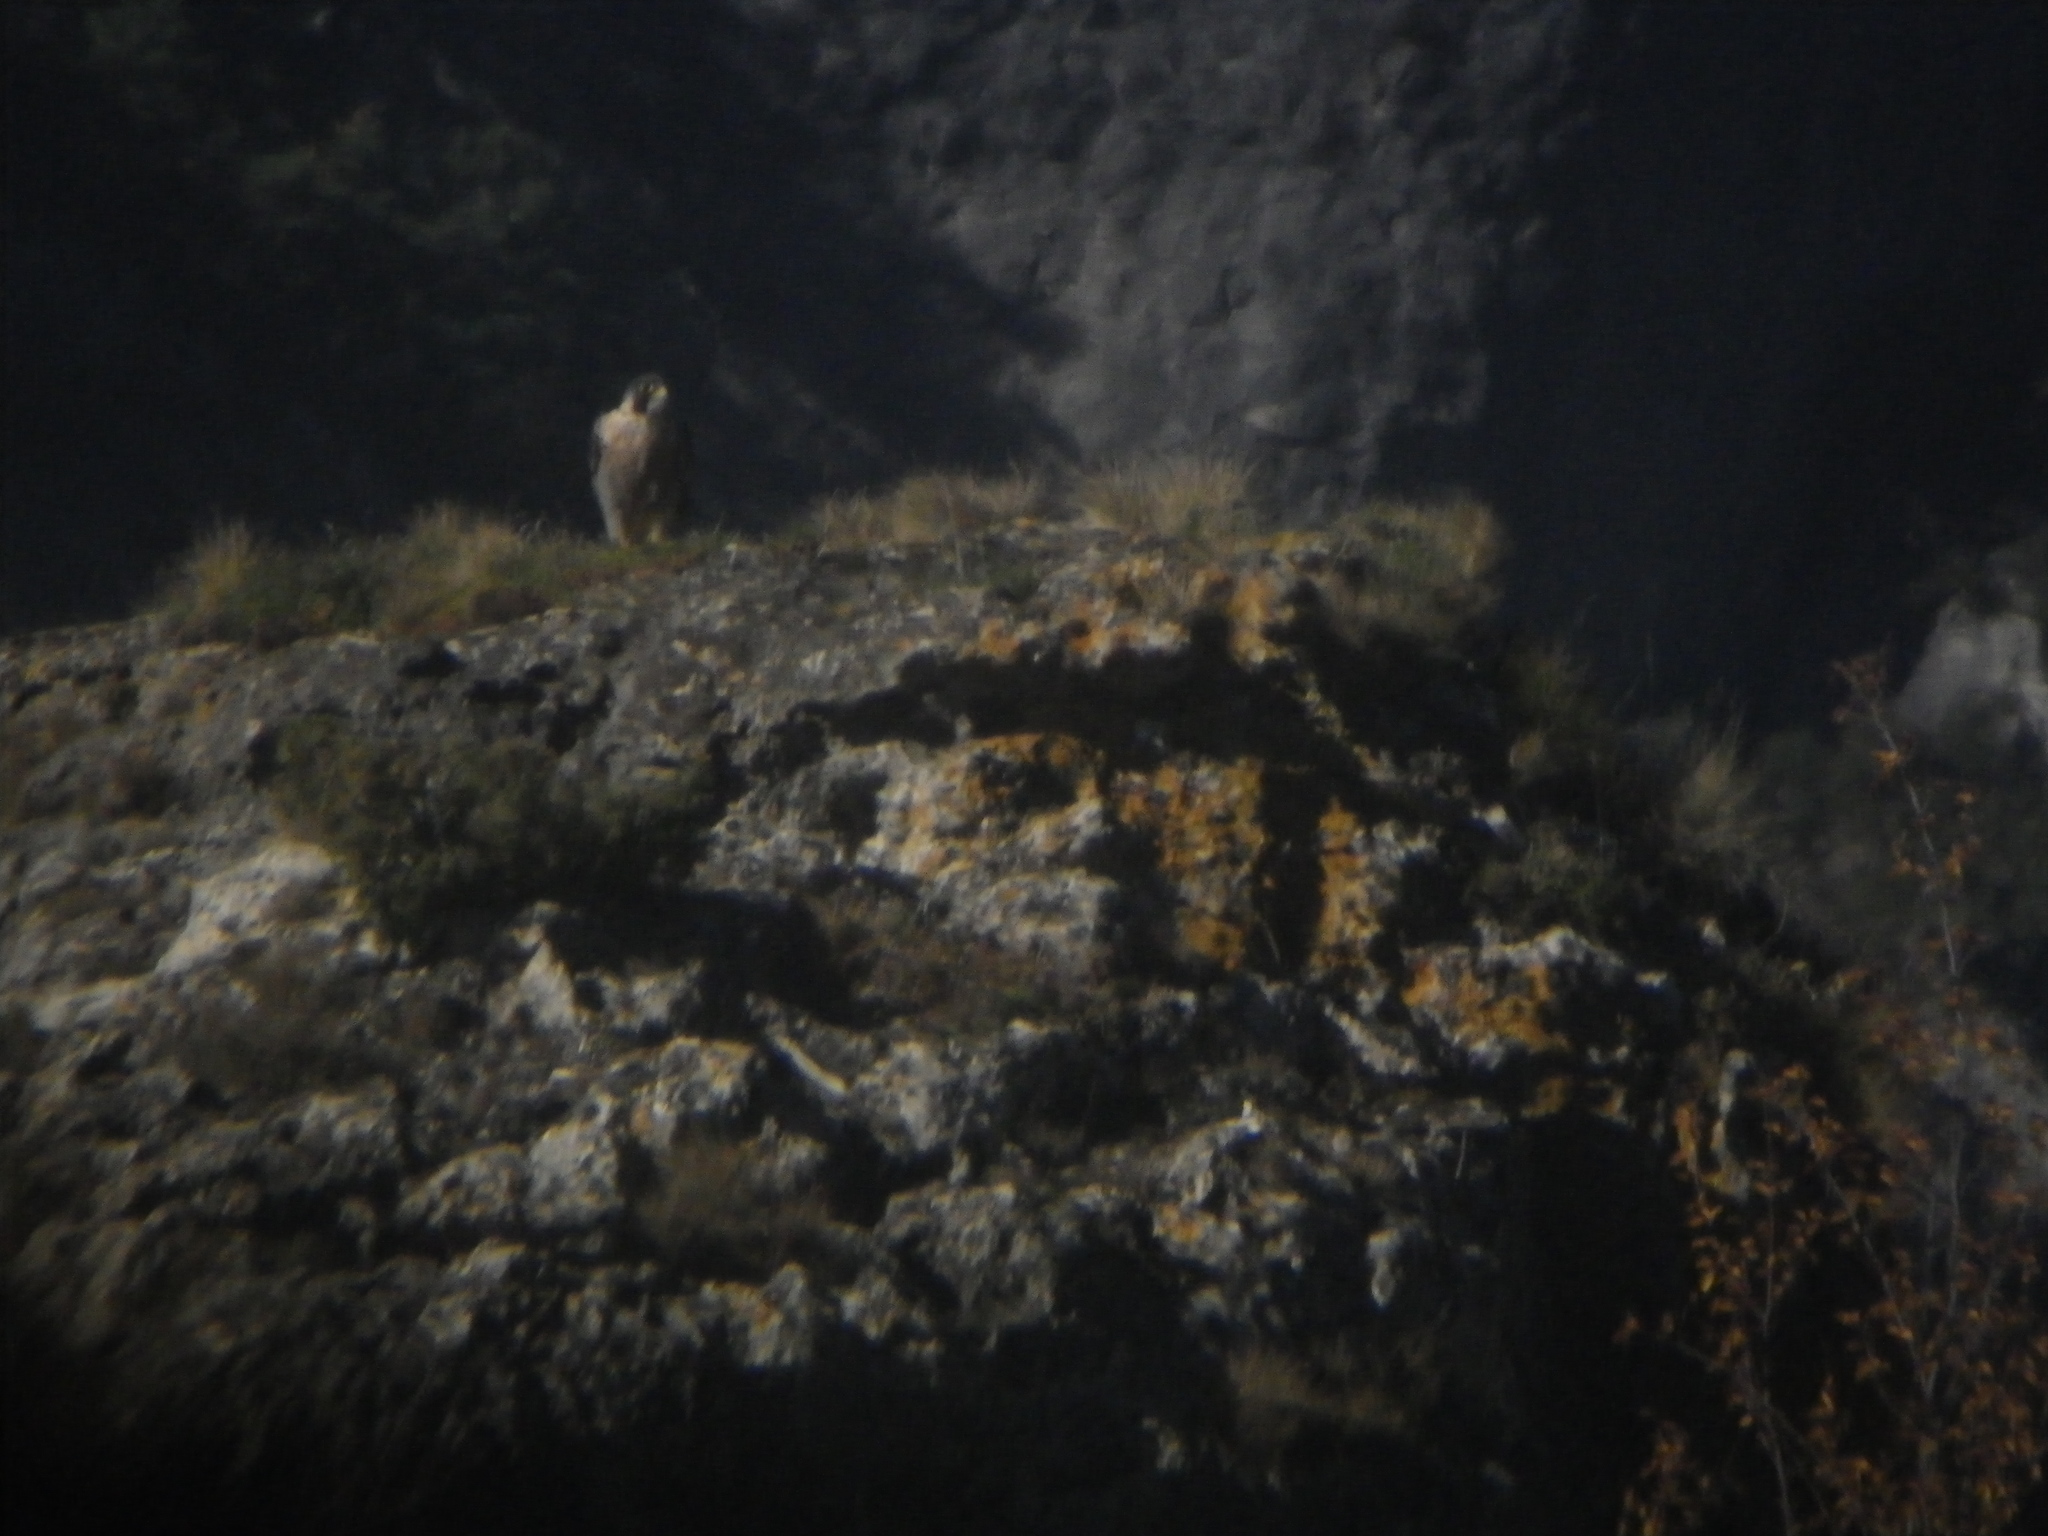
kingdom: Animalia
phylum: Chordata
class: Aves
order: Falconiformes
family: Falconidae
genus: Falco
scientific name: Falco peregrinus
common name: Peregrine falcon
